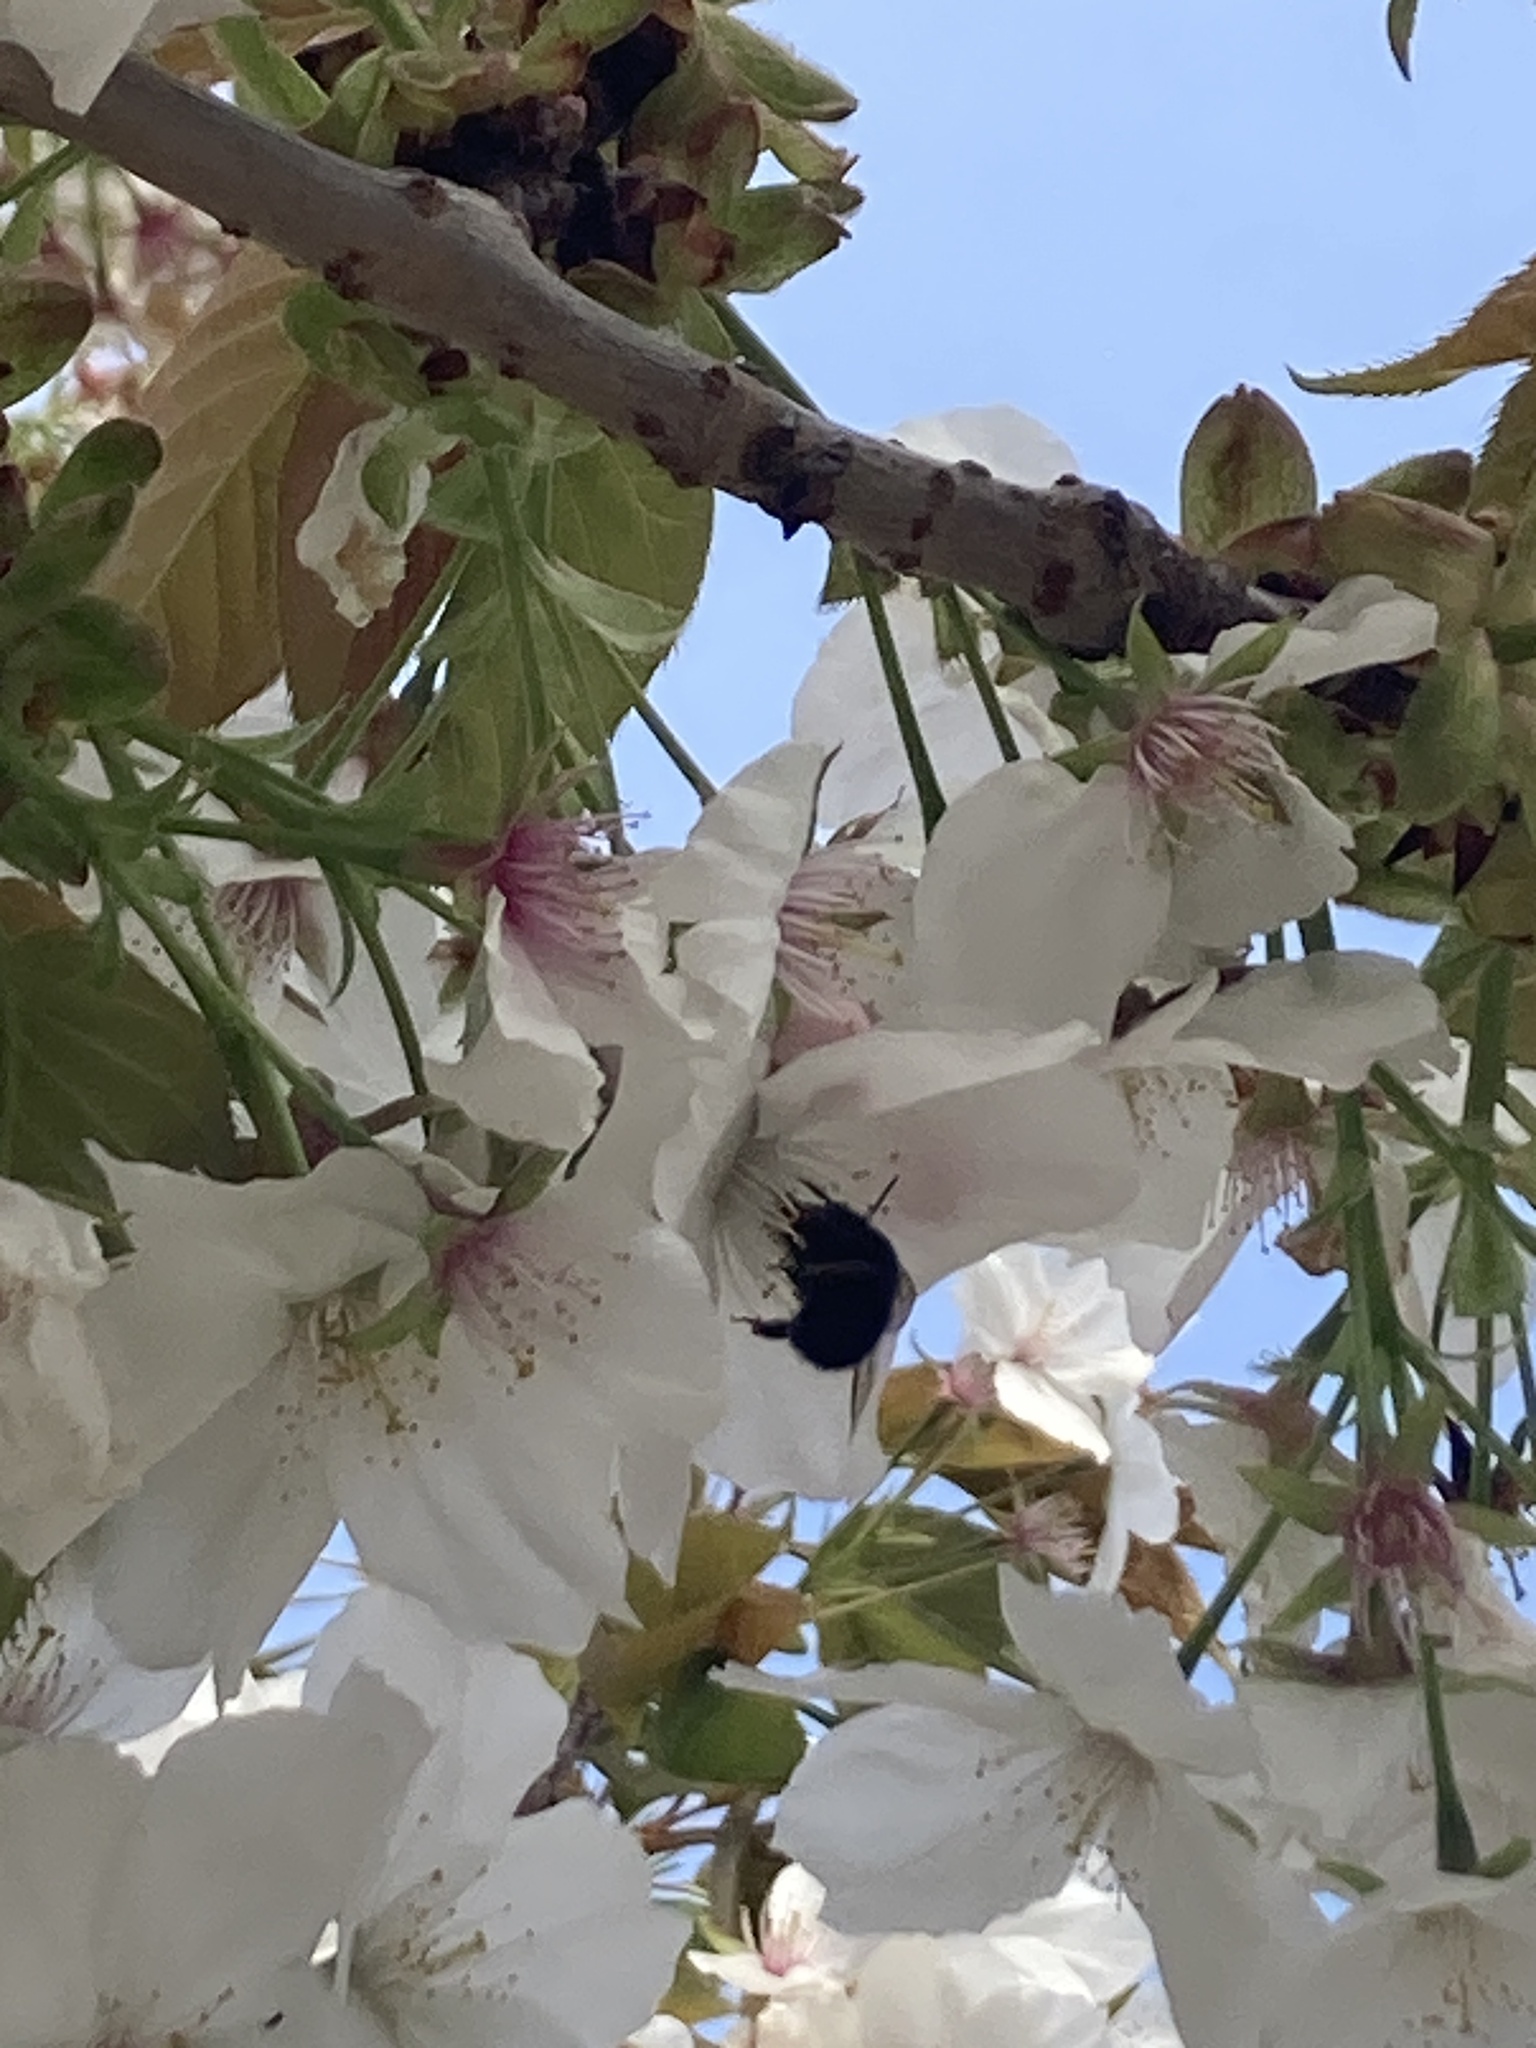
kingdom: Animalia
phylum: Arthropoda
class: Insecta
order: Hymenoptera
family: Apidae
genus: Anthophora
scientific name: Anthophora plumipes
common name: Hairy-footed flower bee
